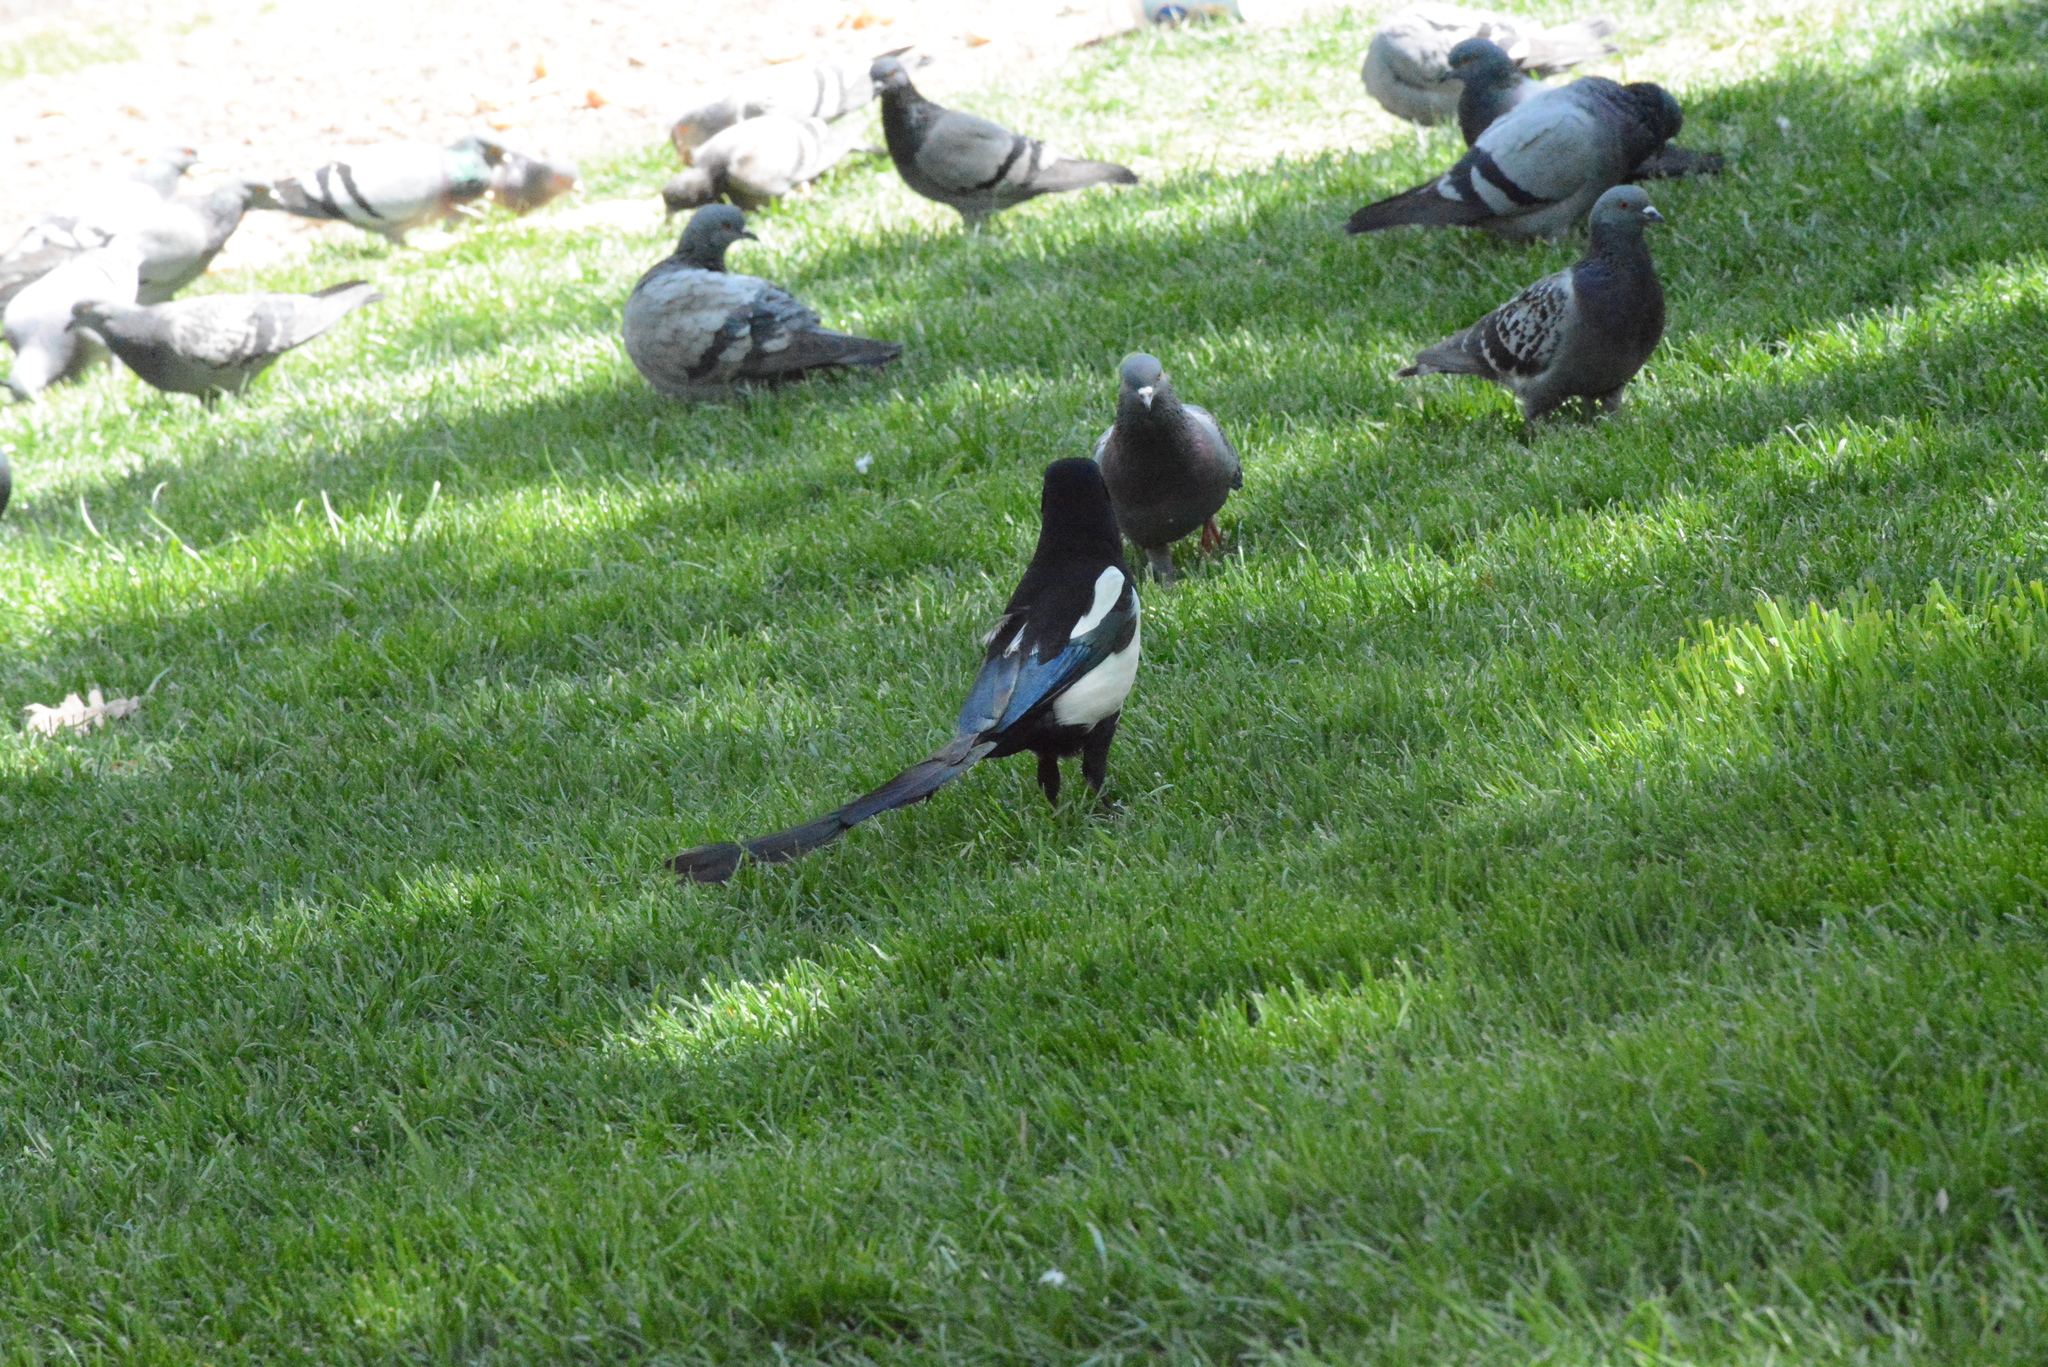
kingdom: Animalia
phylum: Chordata
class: Aves
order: Passeriformes
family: Corvidae
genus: Pica
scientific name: Pica pica
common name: Eurasian magpie
